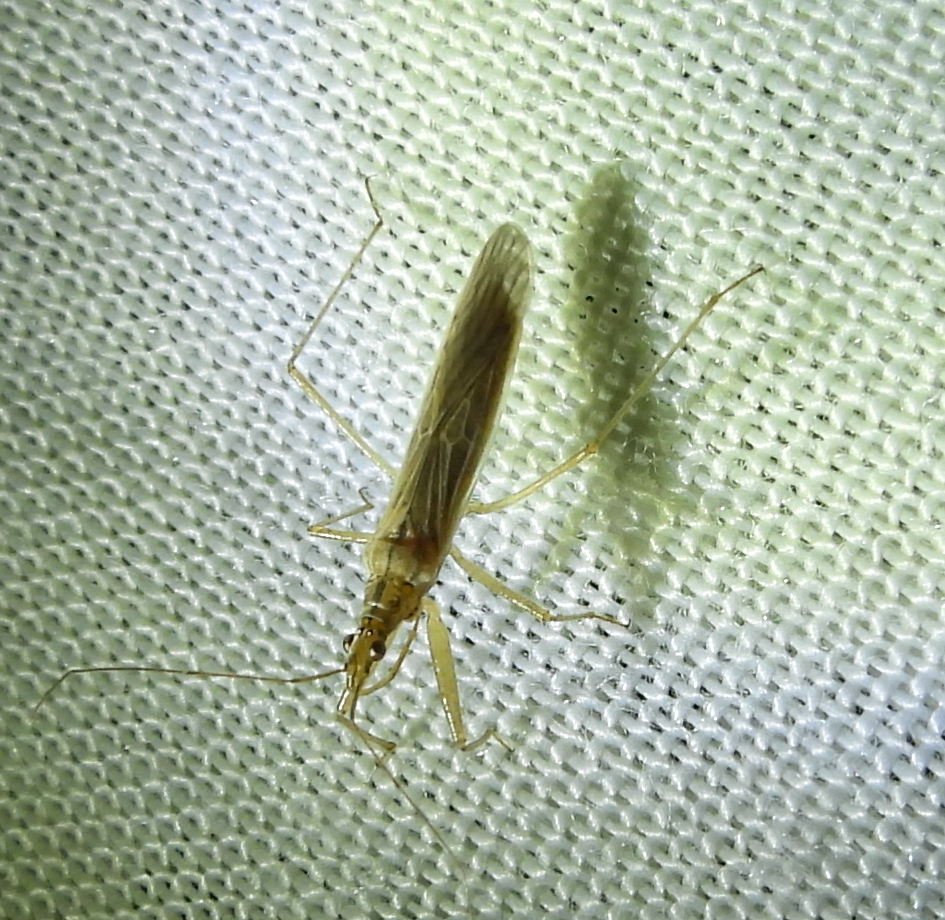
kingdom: Animalia
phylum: Arthropoda
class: Insecta
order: Hemiptera
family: Nabidae
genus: Nabis
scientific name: Nabis capsiformis
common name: Pale damsel bug
